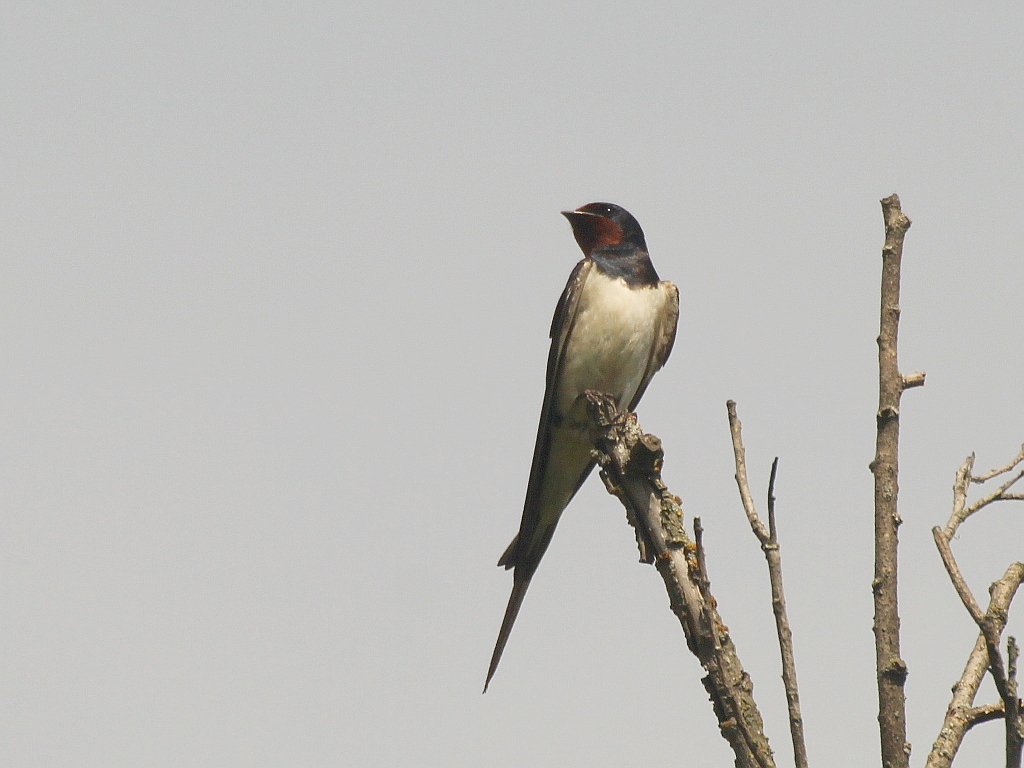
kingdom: Animalia
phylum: Chordata
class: Aves
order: Passeriformes
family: Hirundinidae
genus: Hirundo
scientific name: Hirundo rustica
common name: Barn swallow
